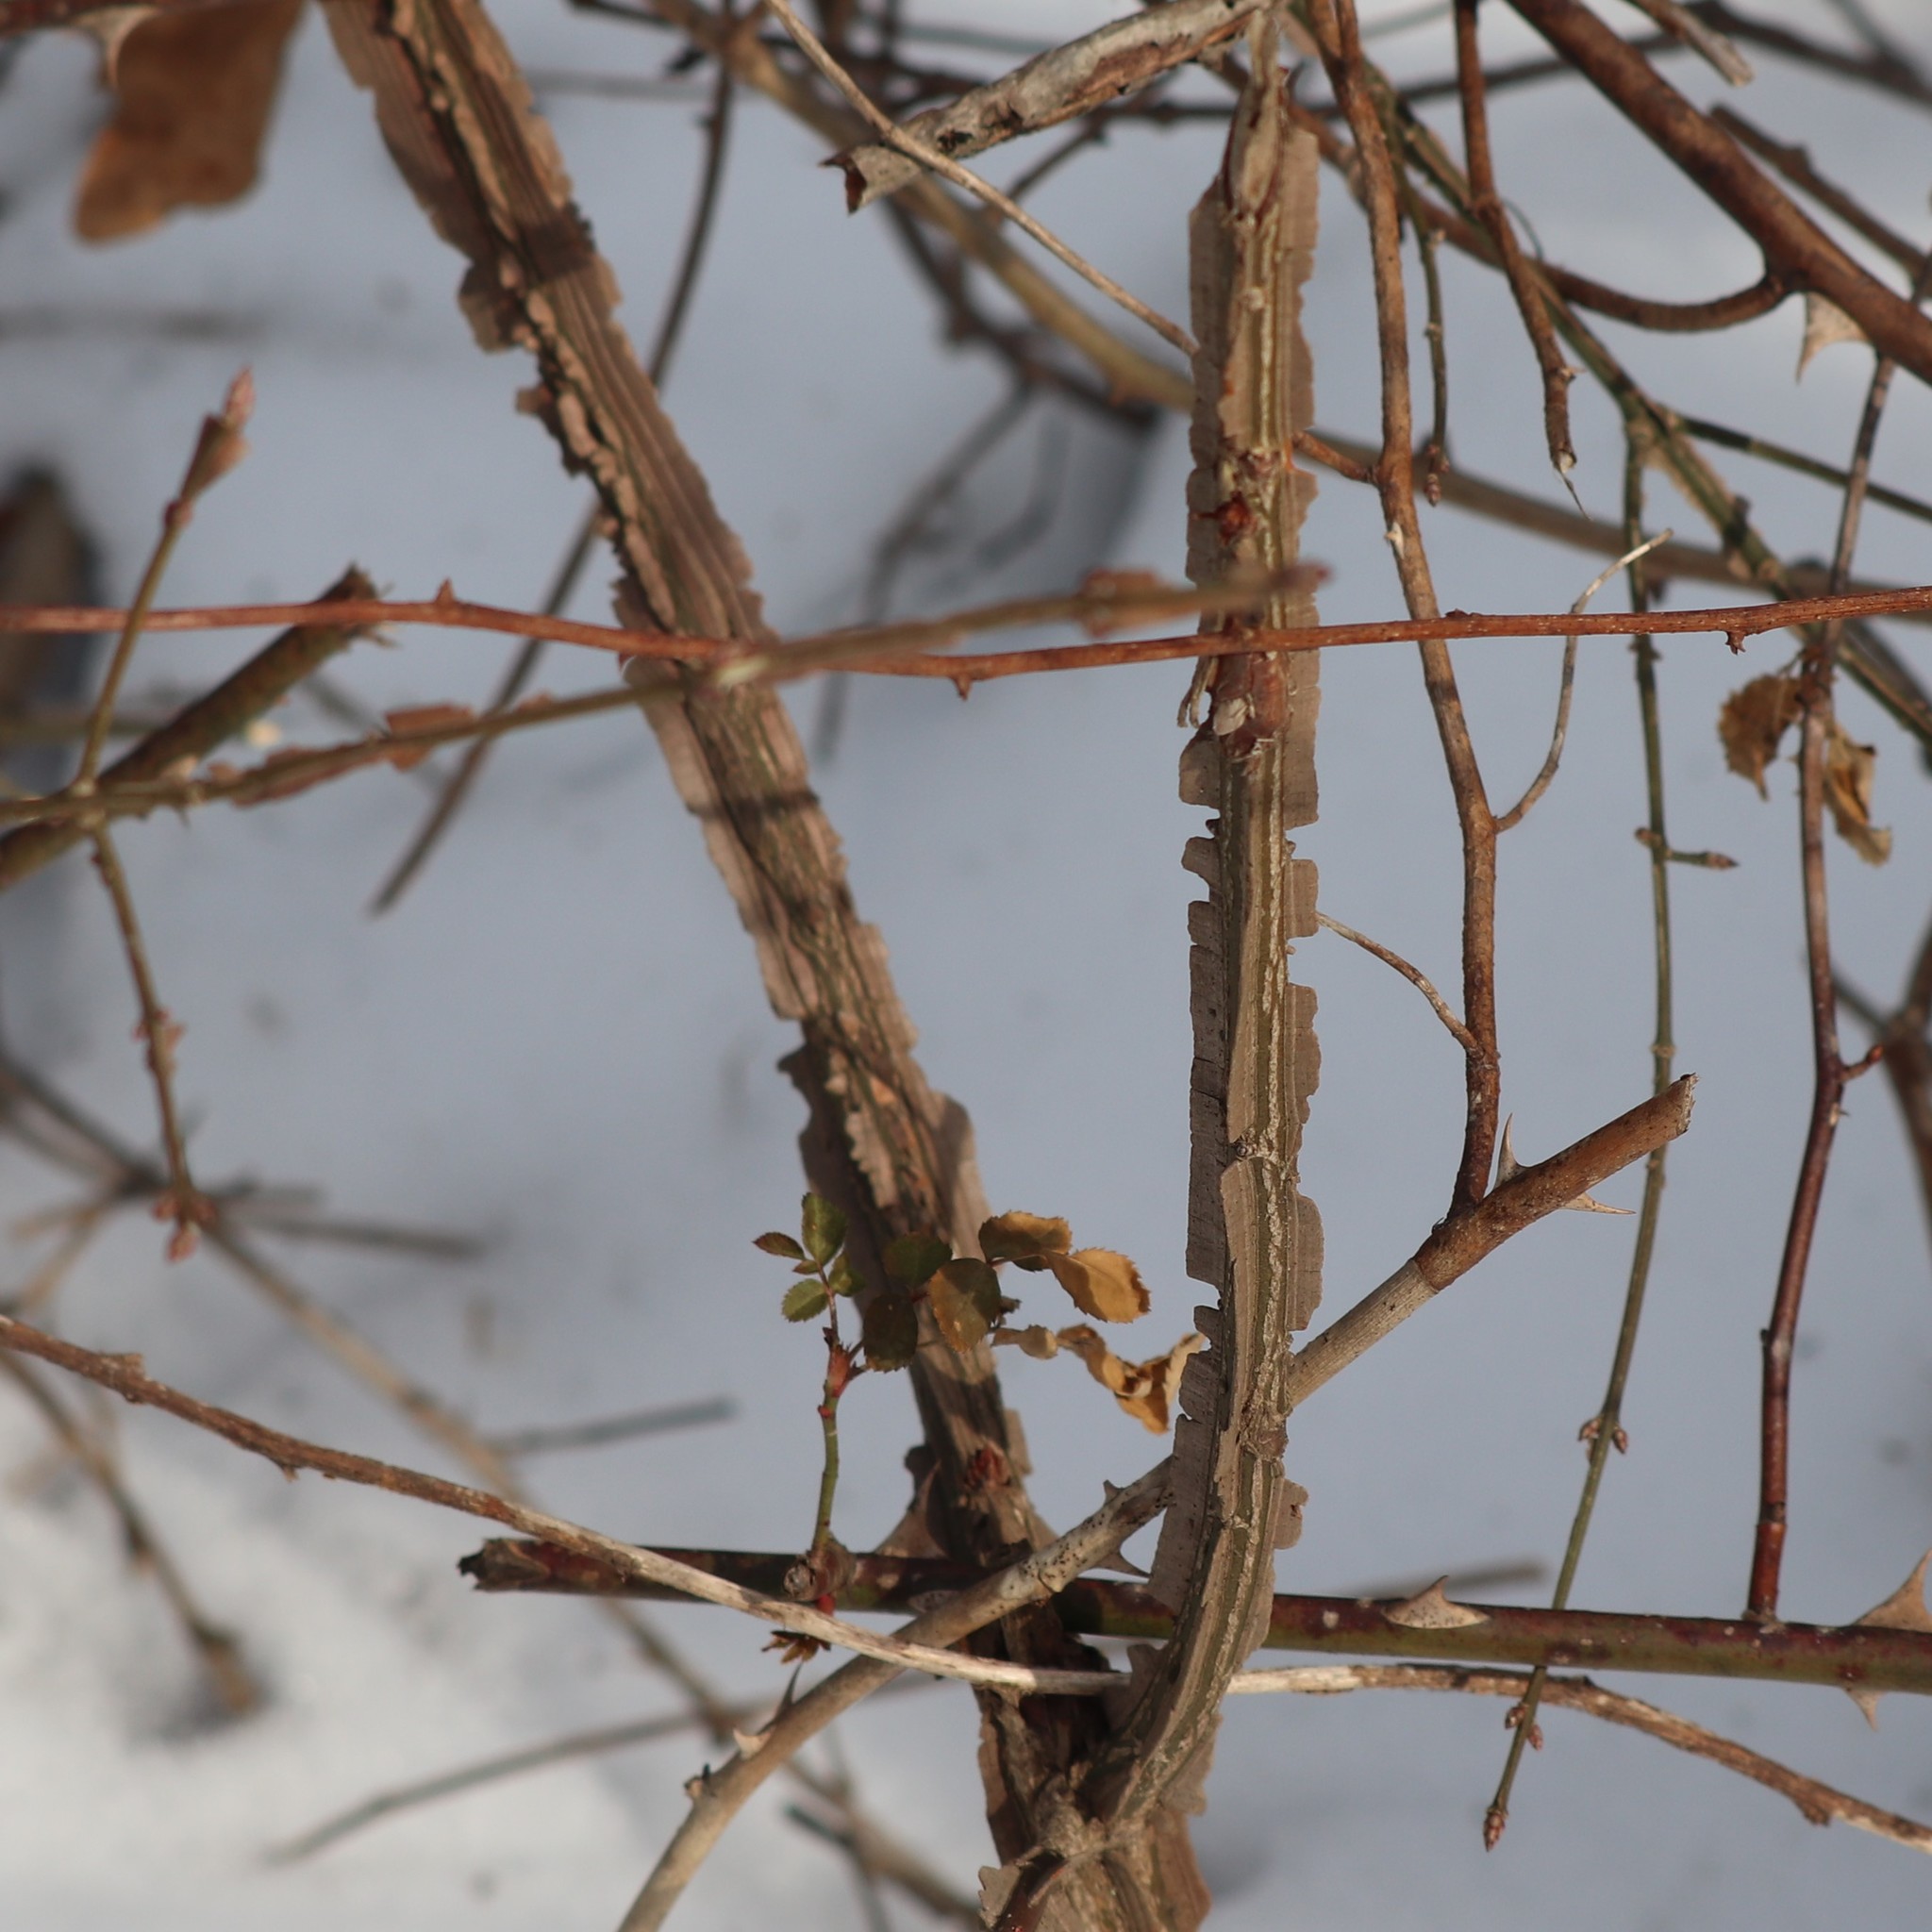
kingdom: Plantae
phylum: Tracheophyta
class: Magnoliopsida
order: Celastrales
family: Celastraceae
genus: Euonymus
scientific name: Euonymus alatus
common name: Winged euonymus
